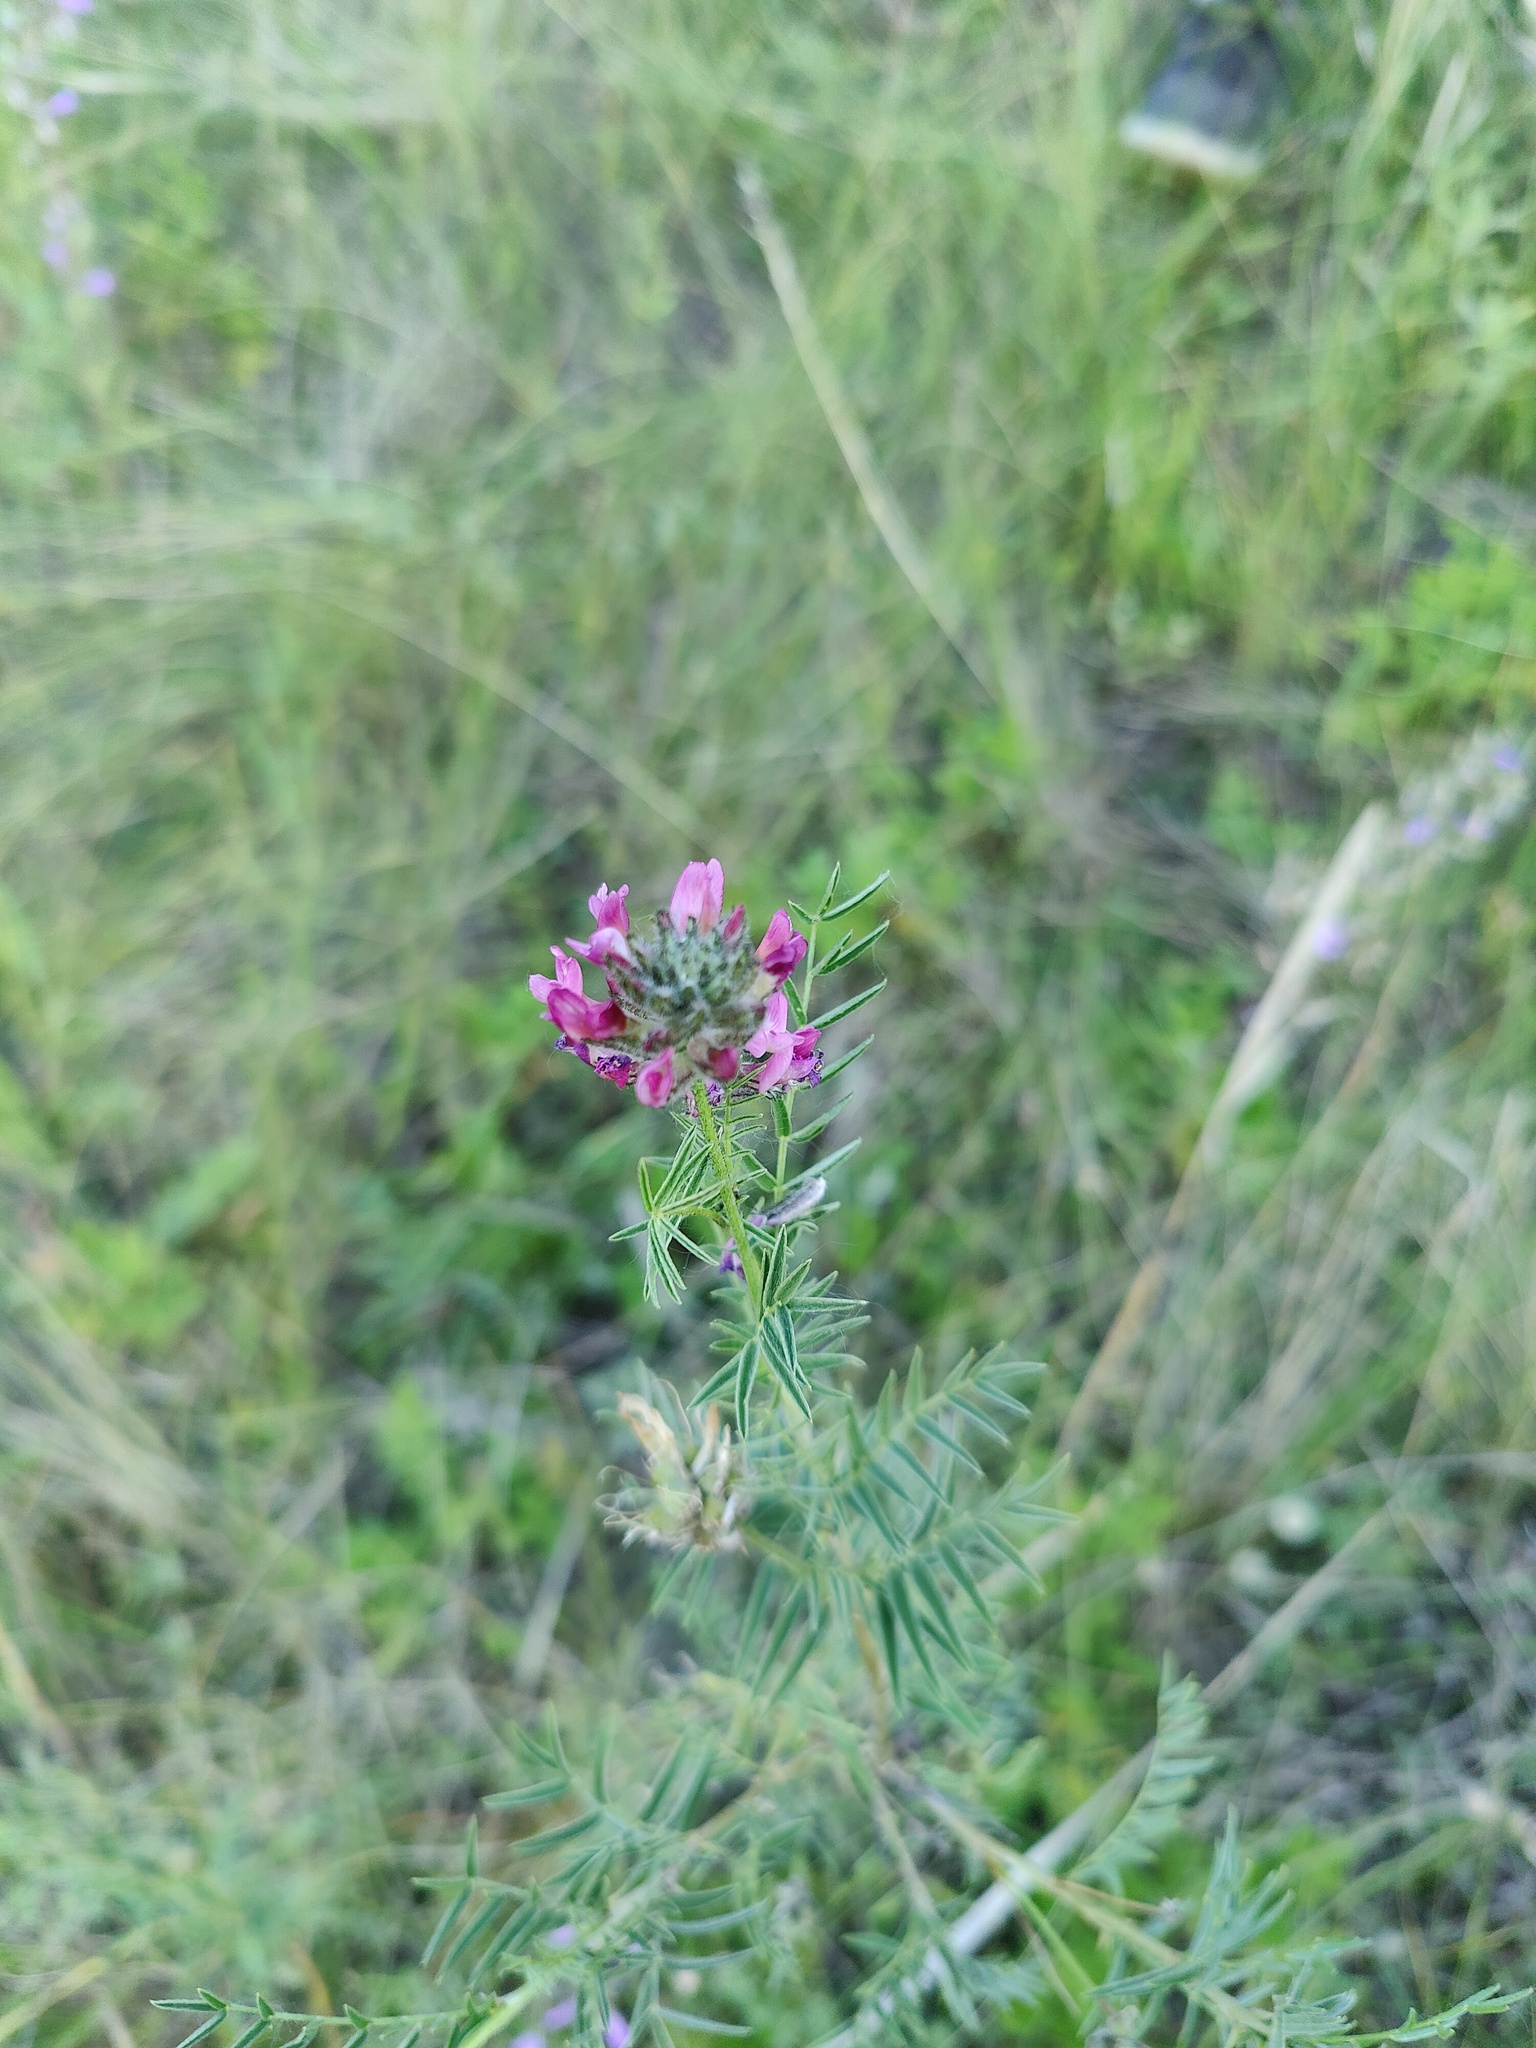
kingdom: Plantae
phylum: Tracheophyta
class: Magnoliopsida
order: Fabales
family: Fabaceae
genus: Astragalus
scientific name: Astragalus cornutus
